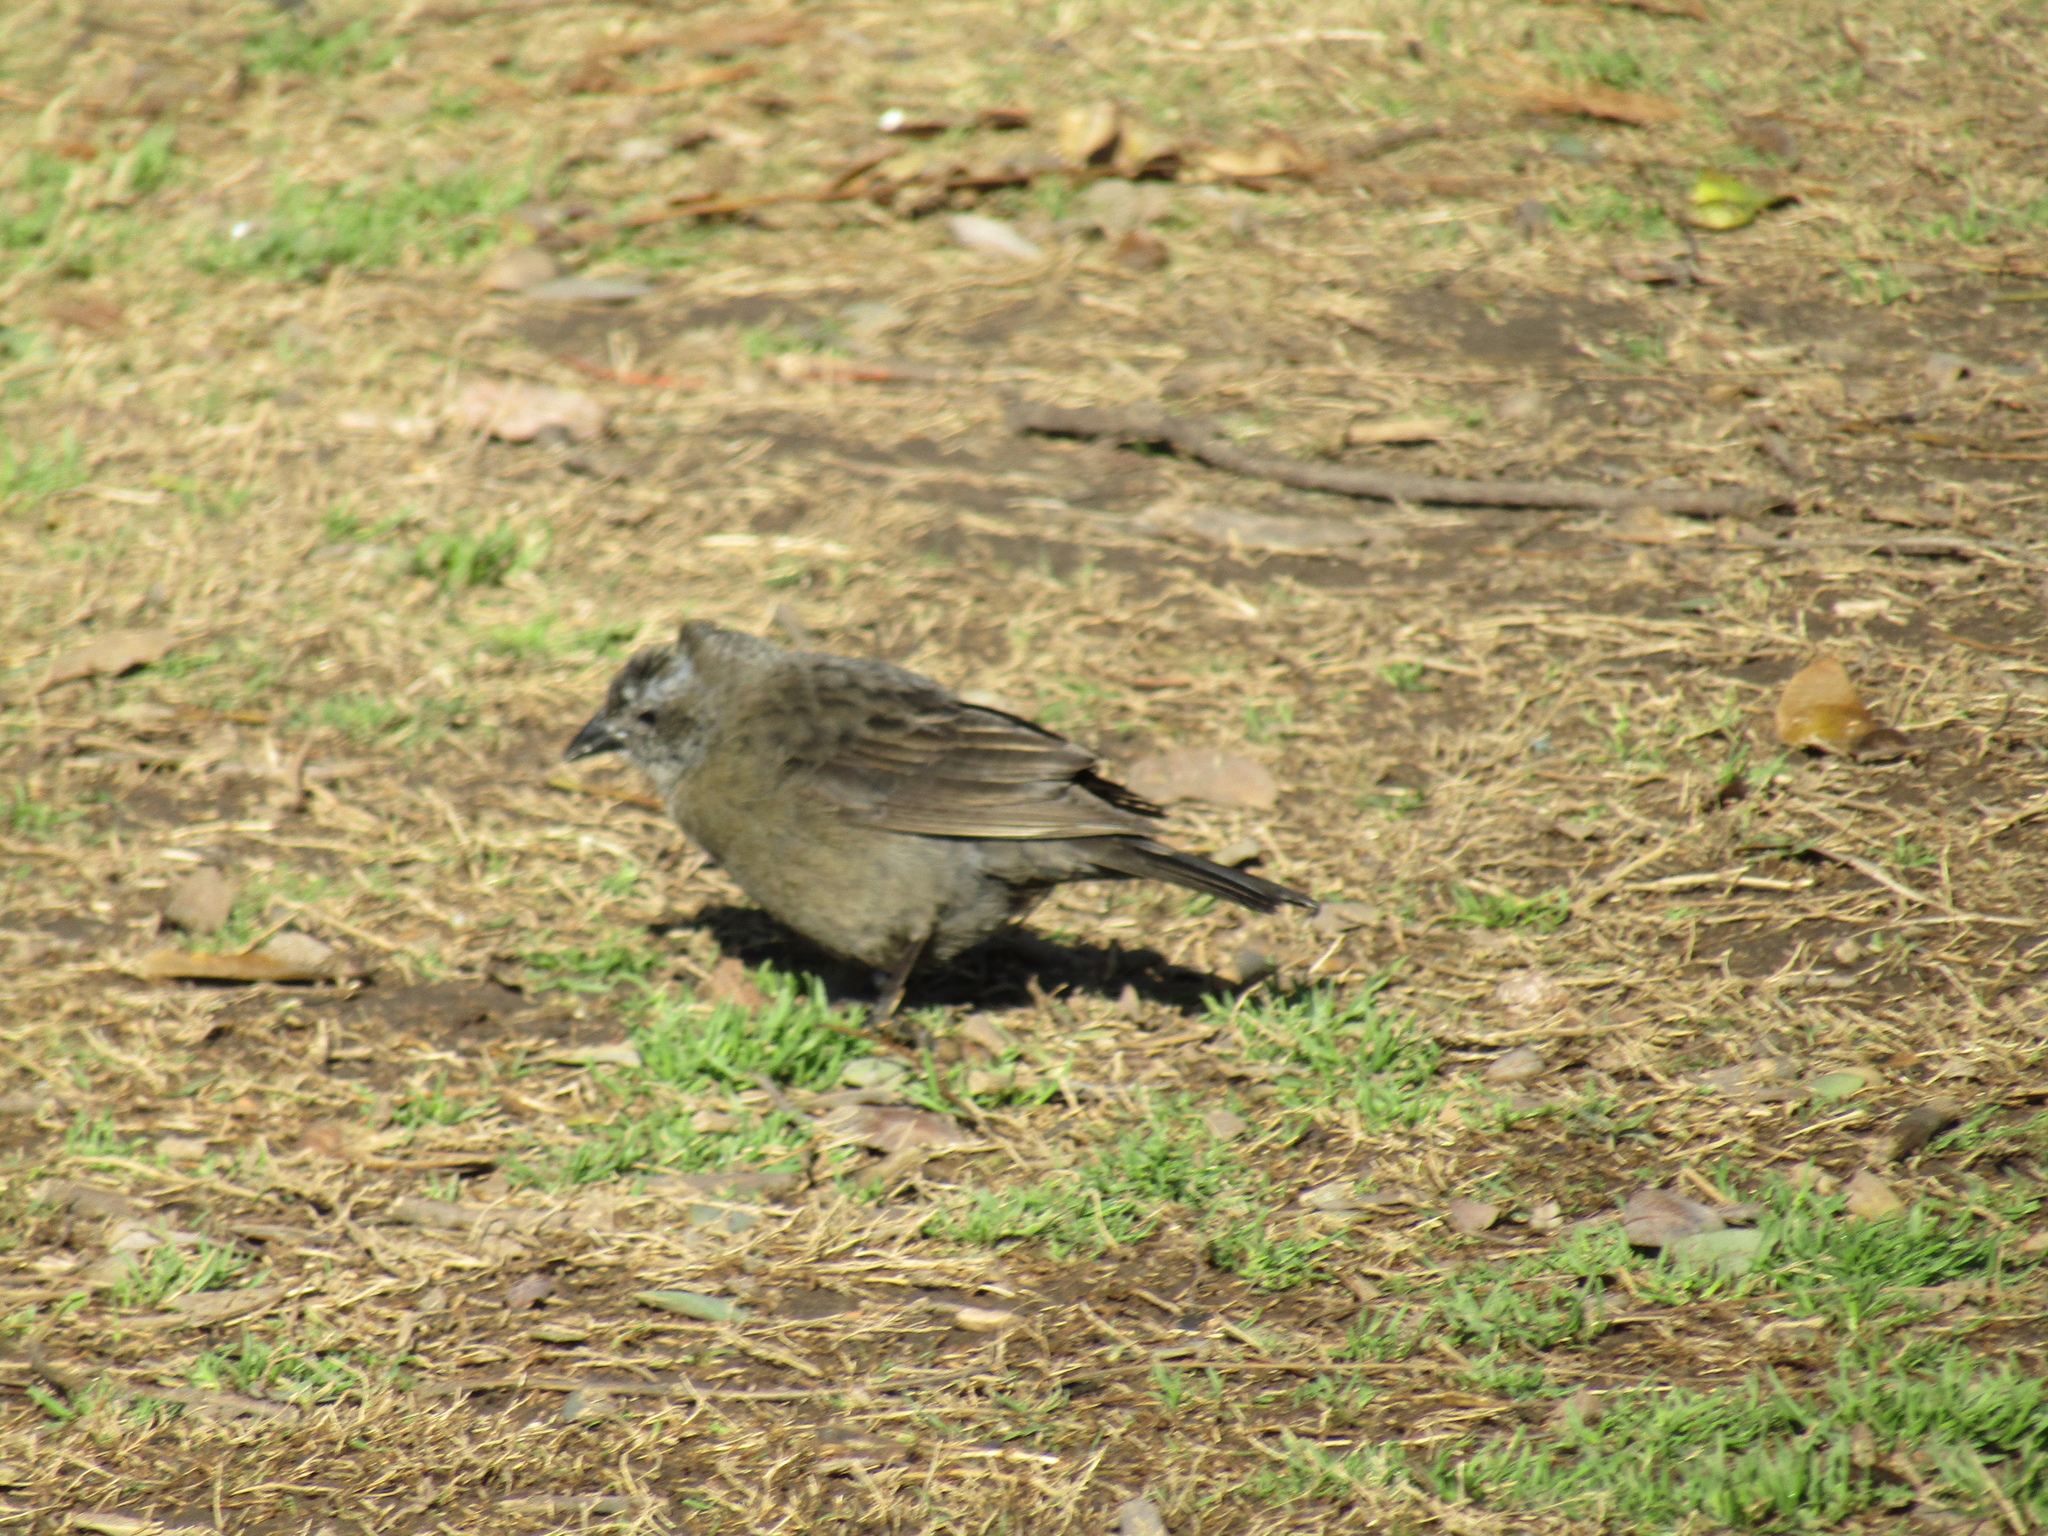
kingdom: Animalia
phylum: Chordata
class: Aves
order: Passeriformes
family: Icteridae
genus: Molothrus
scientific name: Molothrus bonariensis
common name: Shiny cowbird
